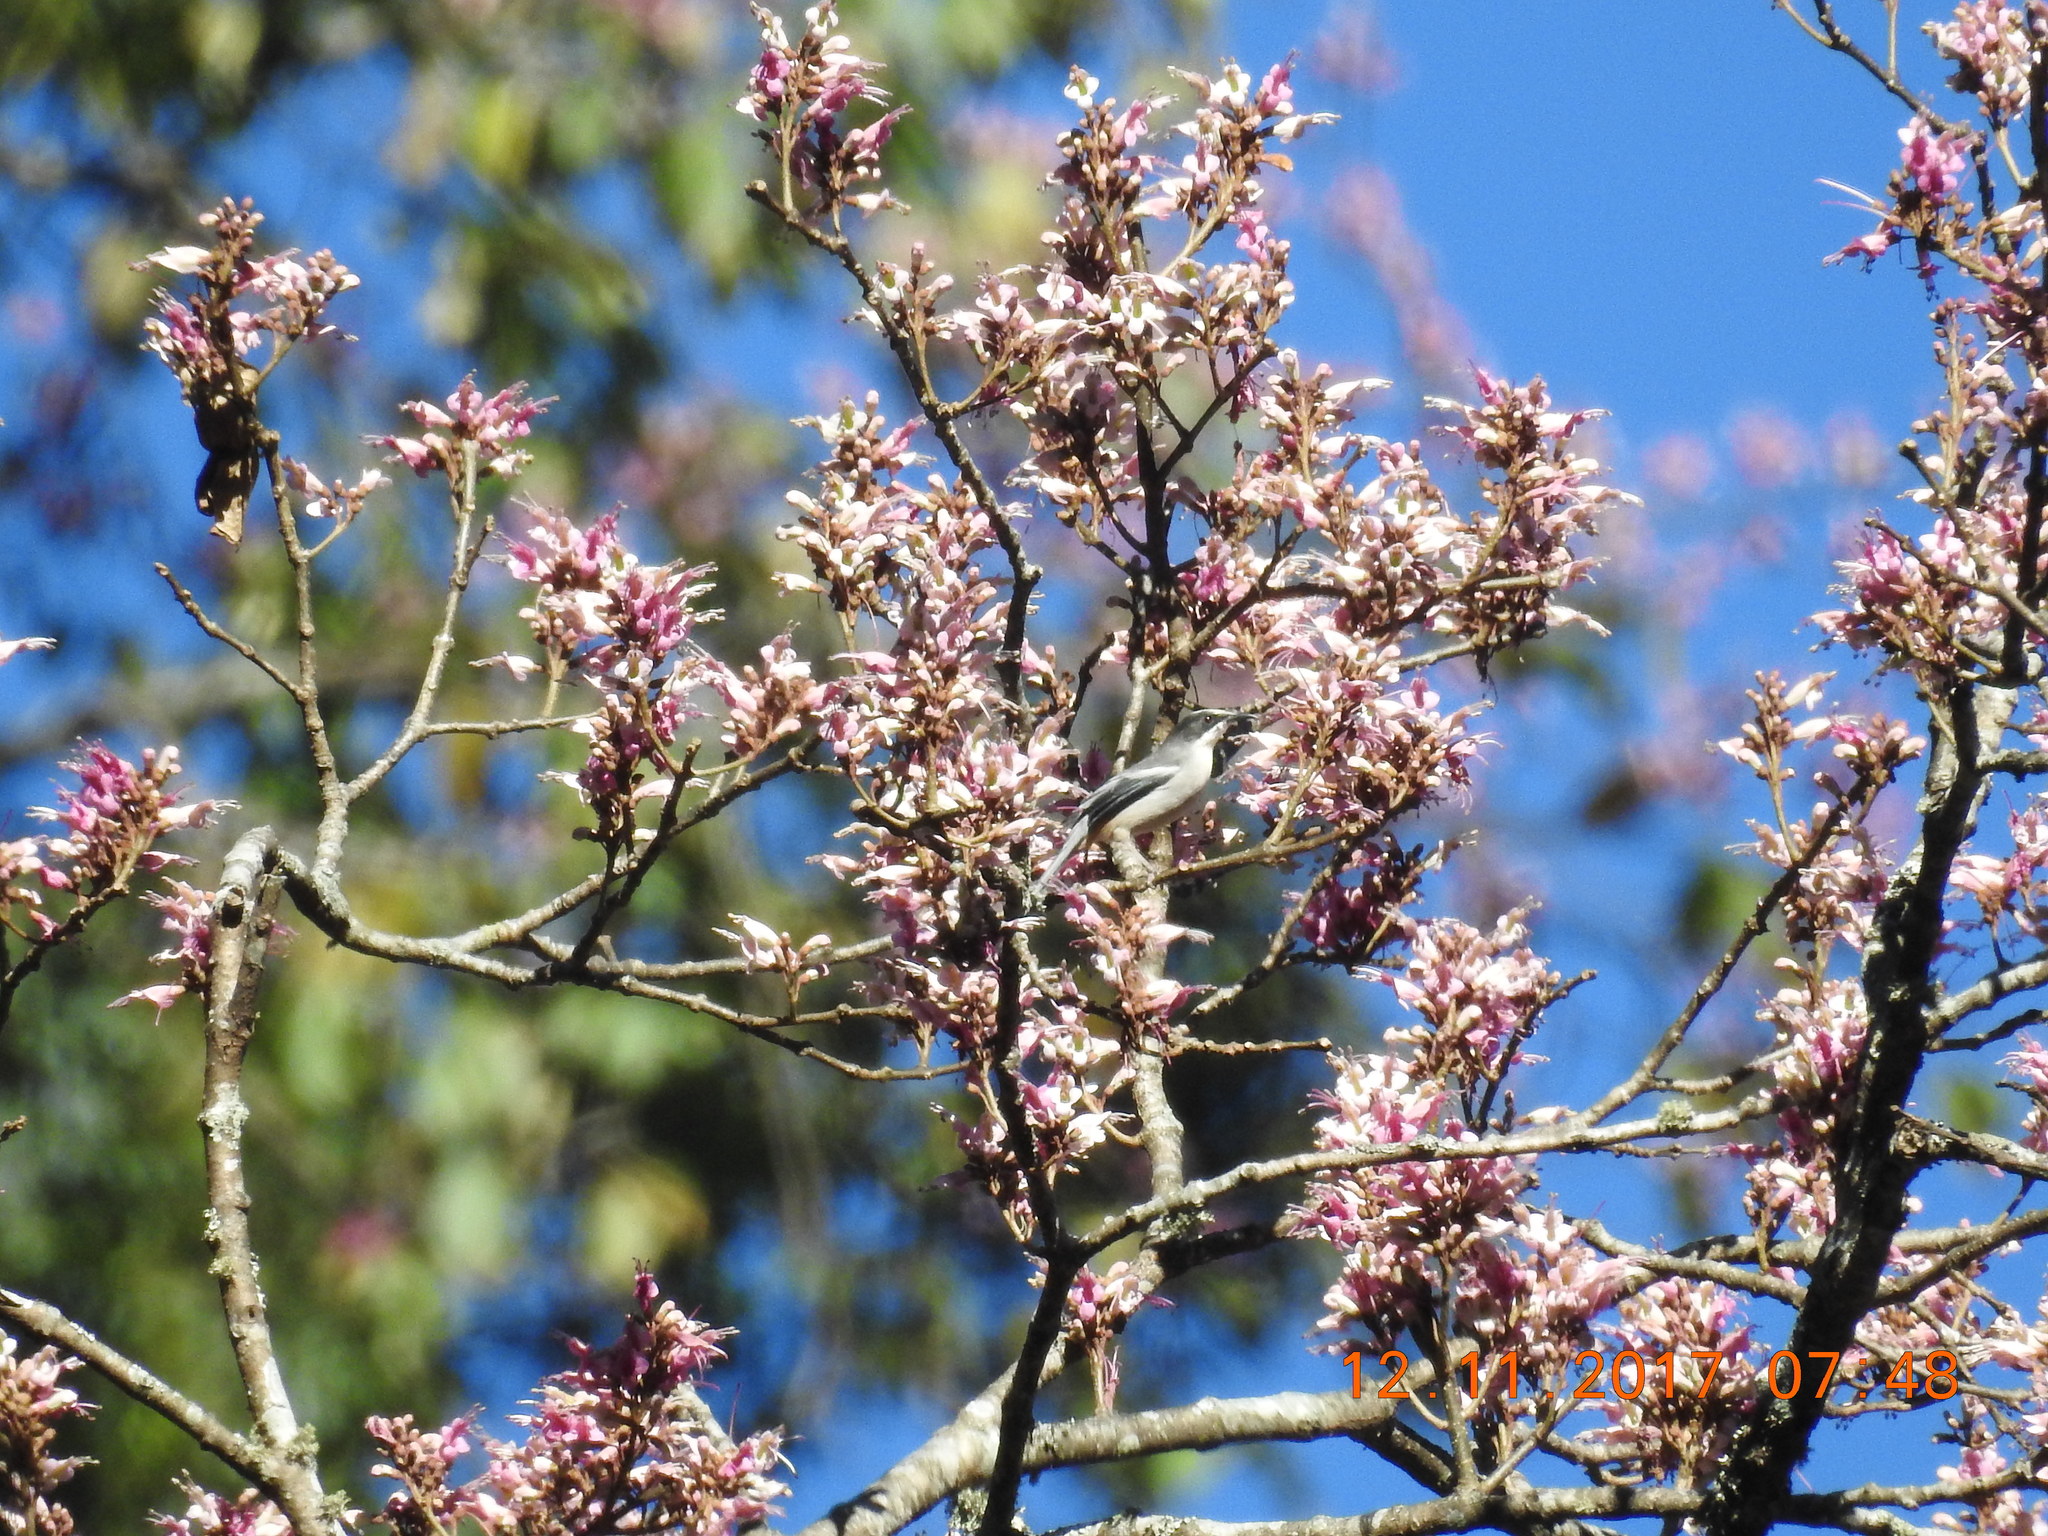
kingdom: Animalia
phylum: Chordata
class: Aves
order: Passeriformes
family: Leiothrichidae
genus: Heterophasia
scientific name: Heterophasia gracilis
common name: Grey sibia
